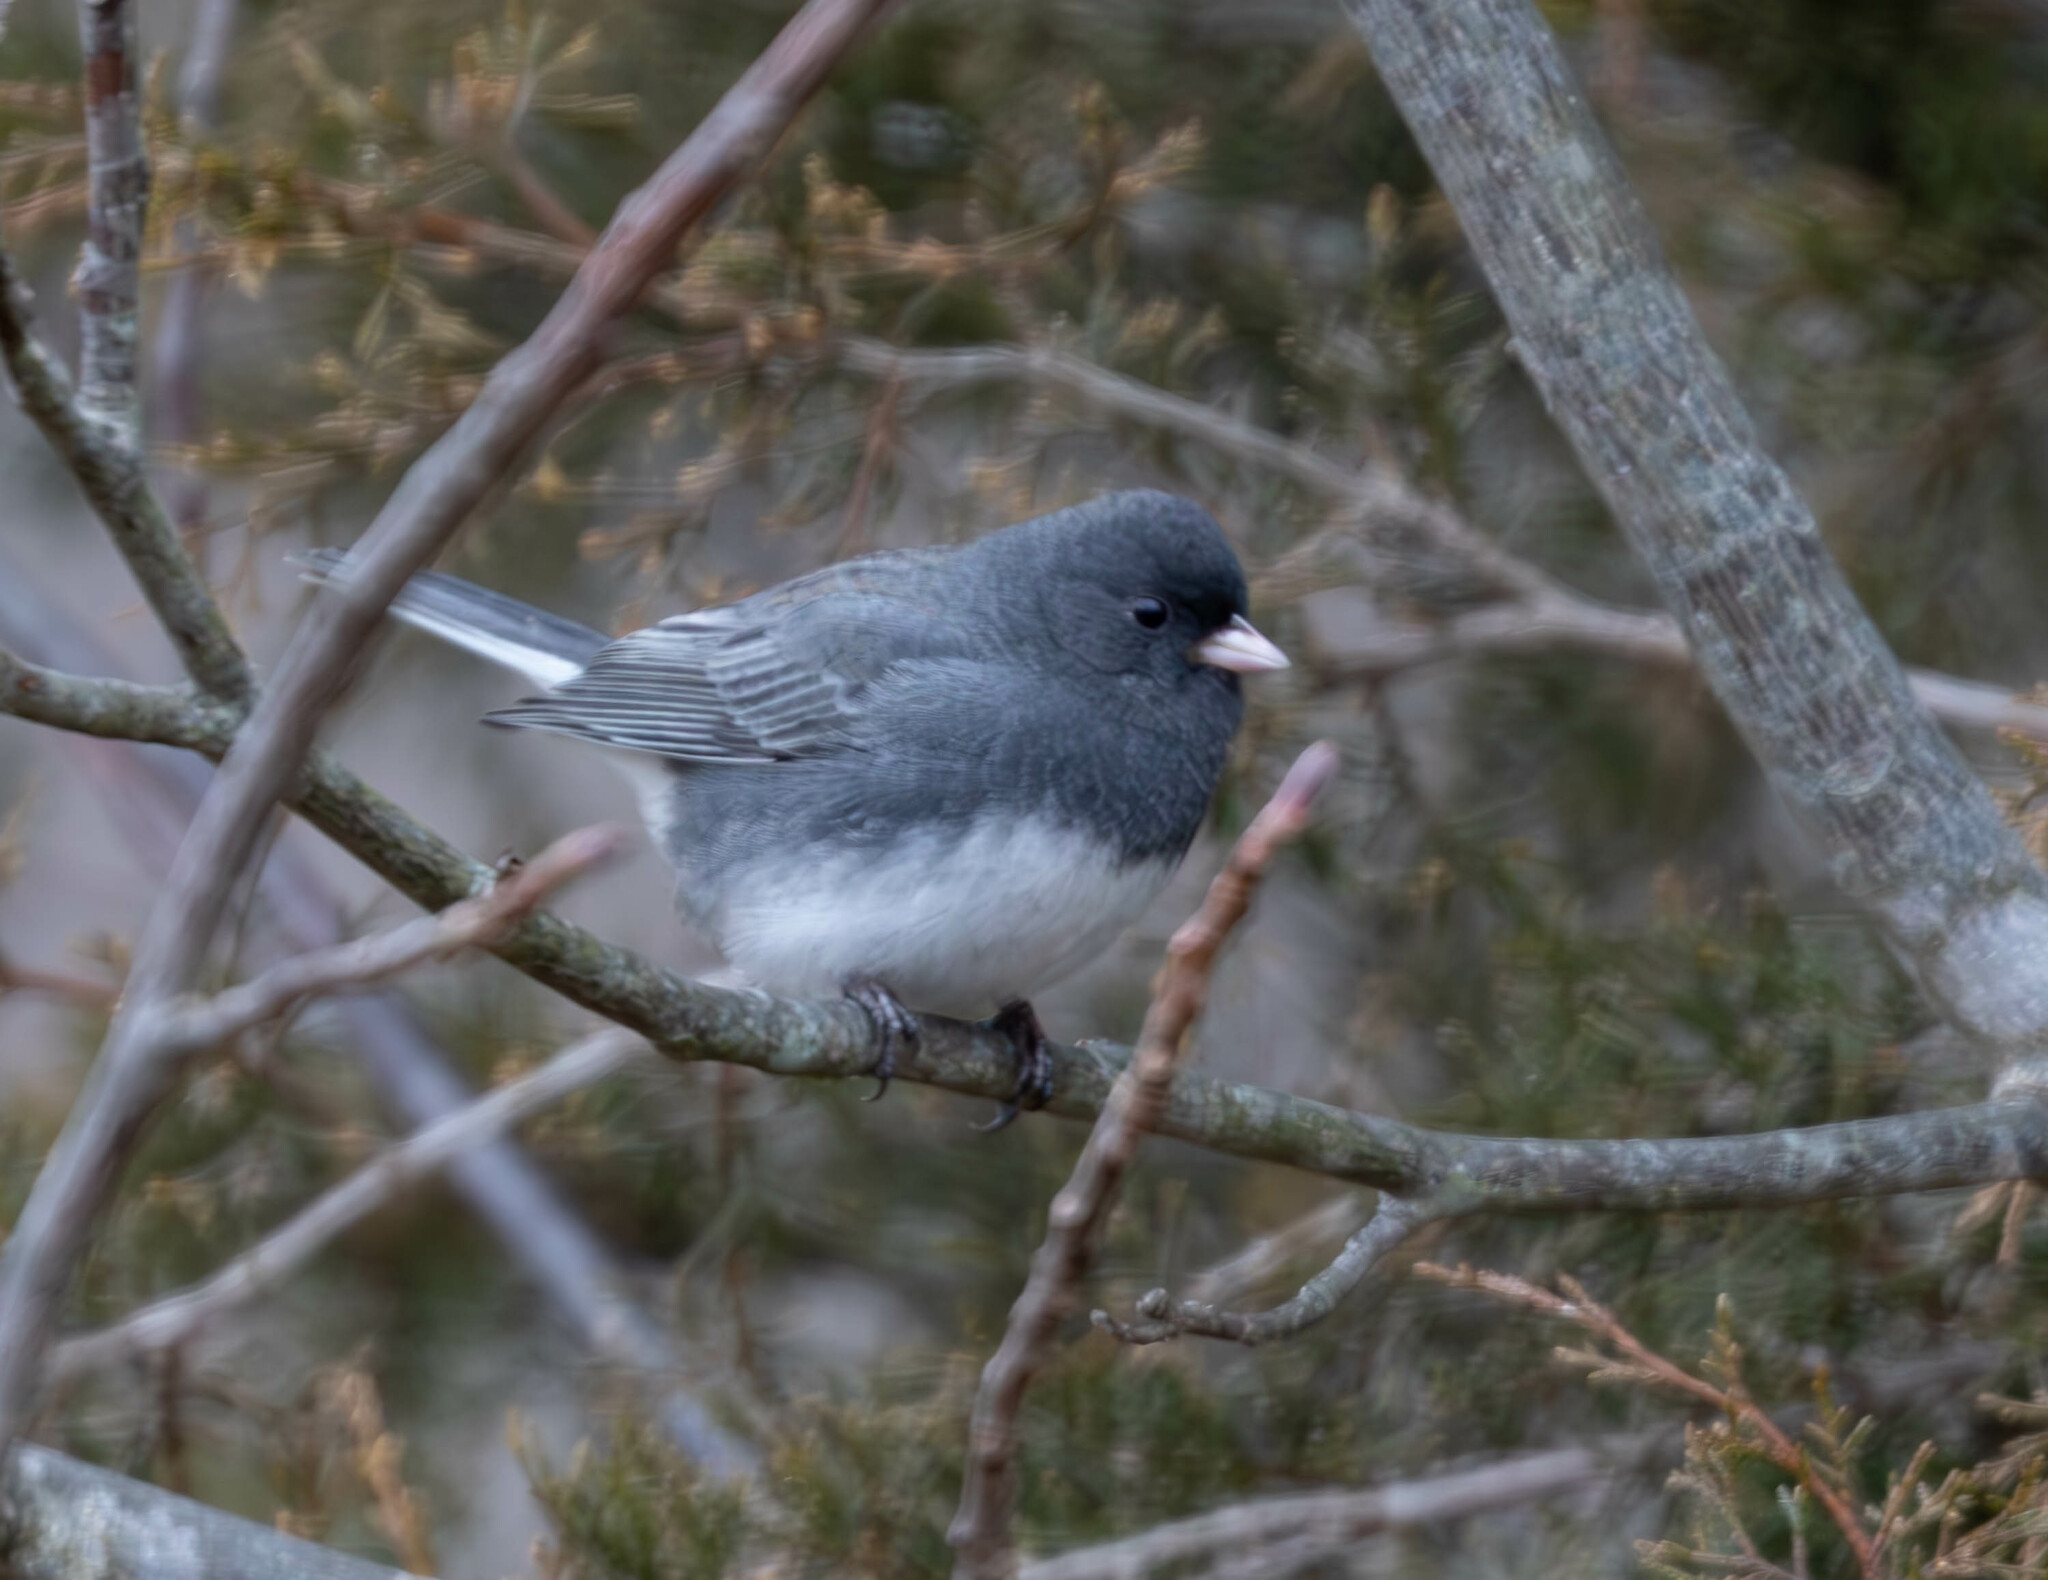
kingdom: Animalia
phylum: Chordata
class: Aves
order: Passeriformes
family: Passerellidae
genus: Junco
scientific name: Junco hyemalis
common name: Dark-eyed junco
